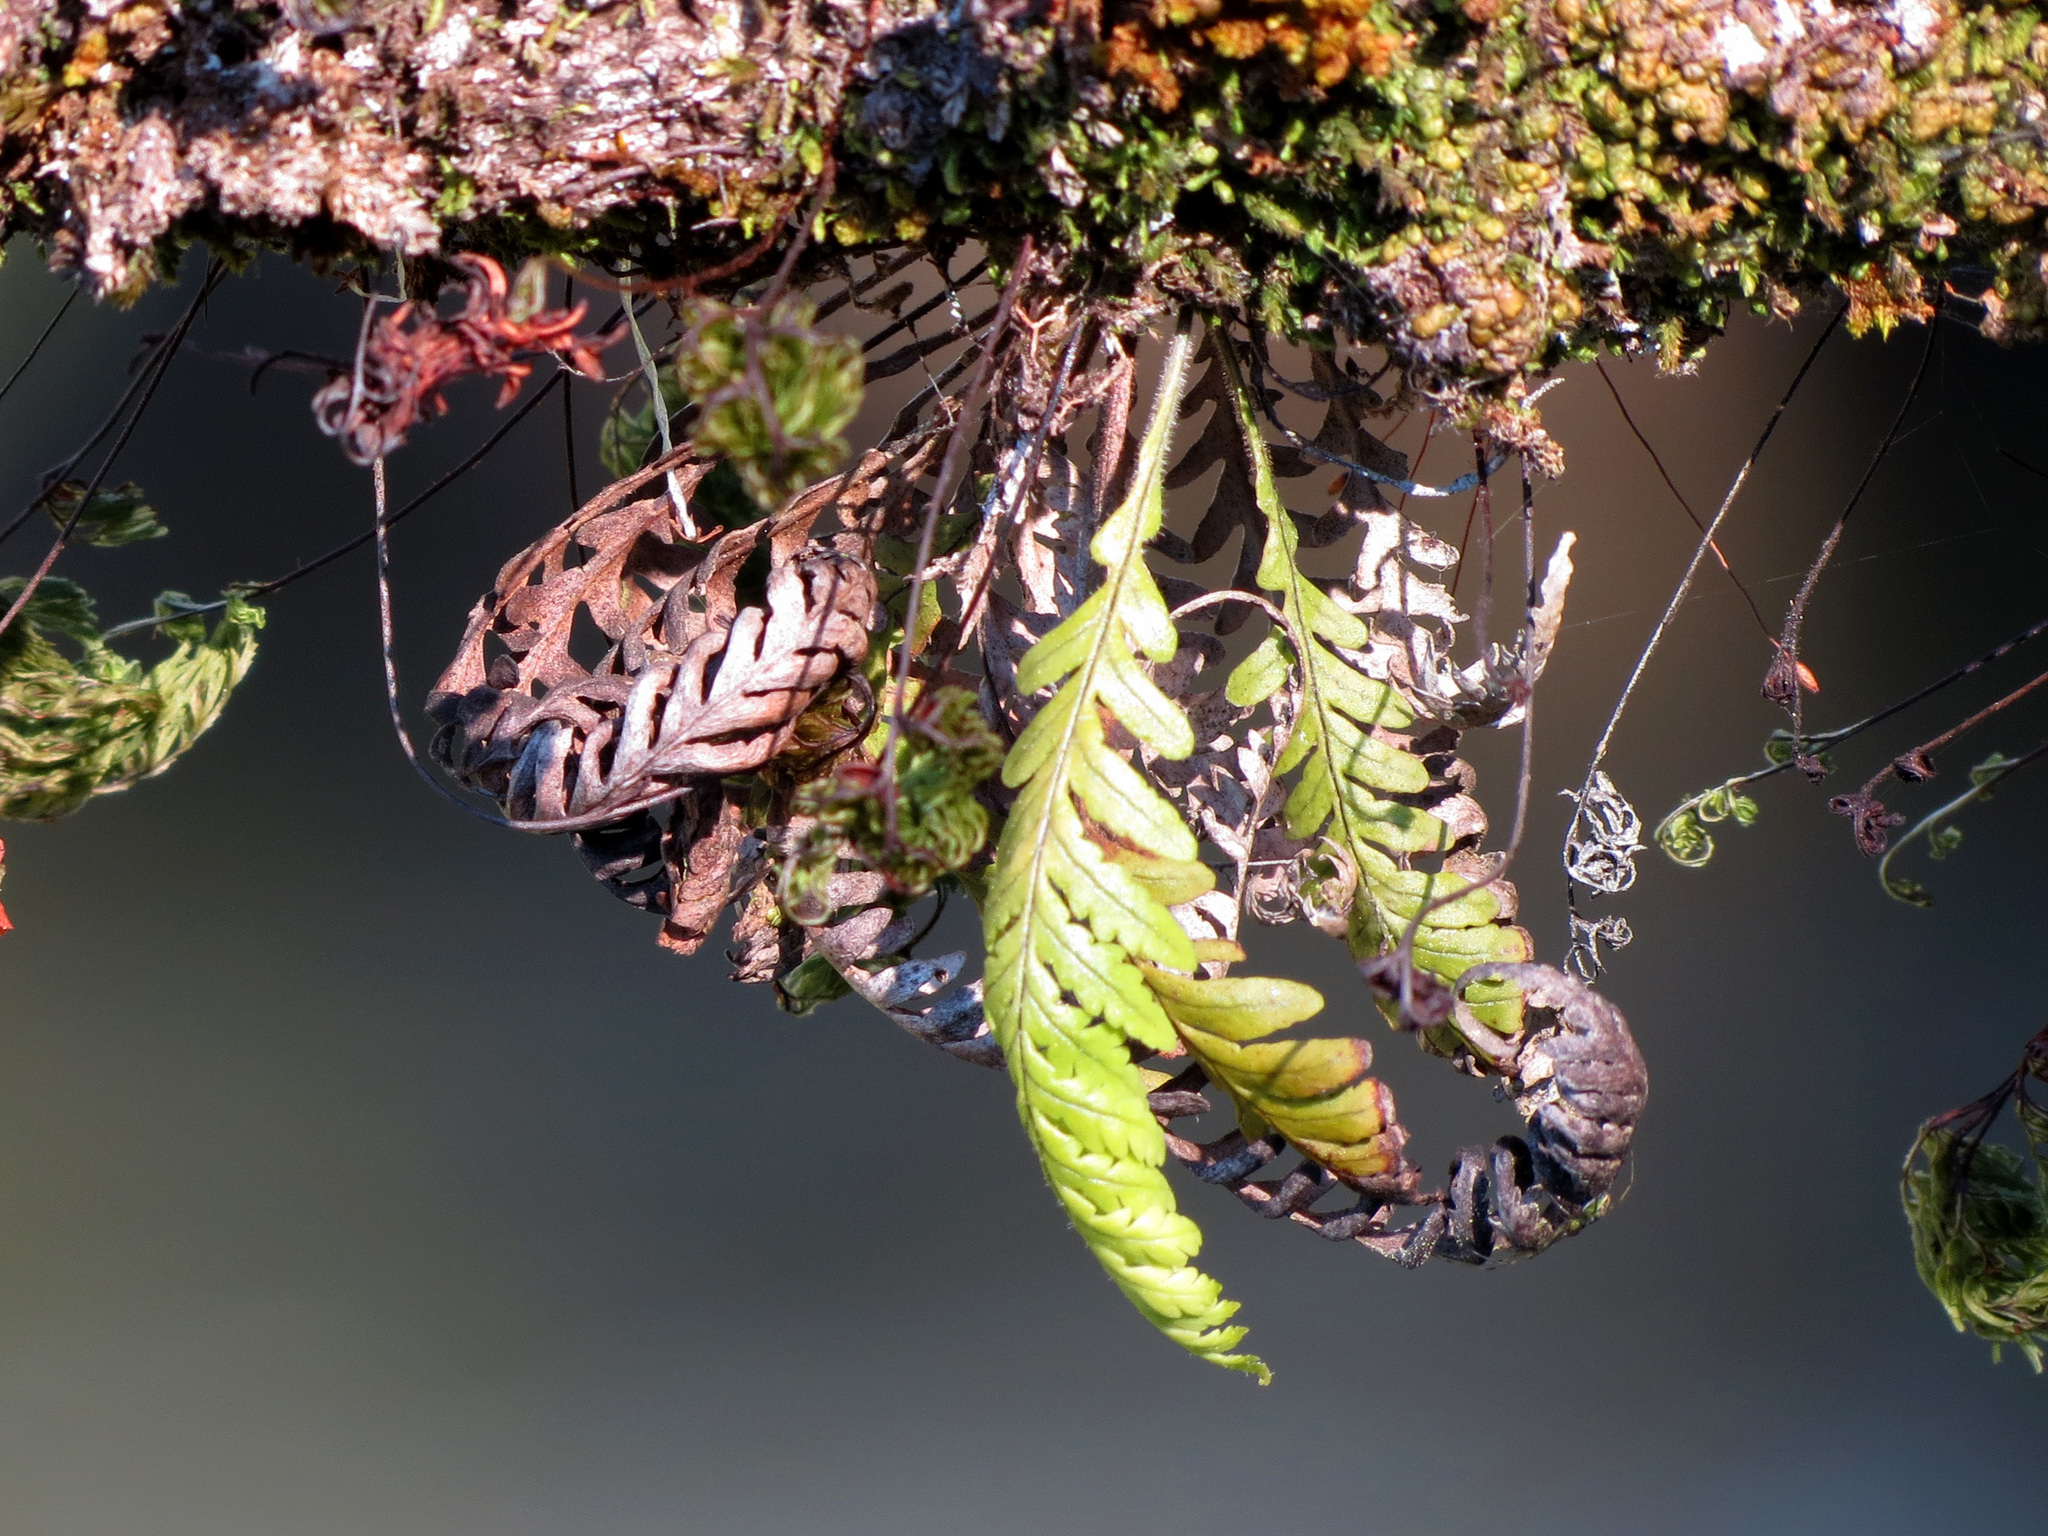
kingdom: Plantae
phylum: Tracheophyta
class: Polypodiopsida
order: Polypodiales
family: Polypodiaceae
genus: Notogrammitis
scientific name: Notogrammitis heterophylla
